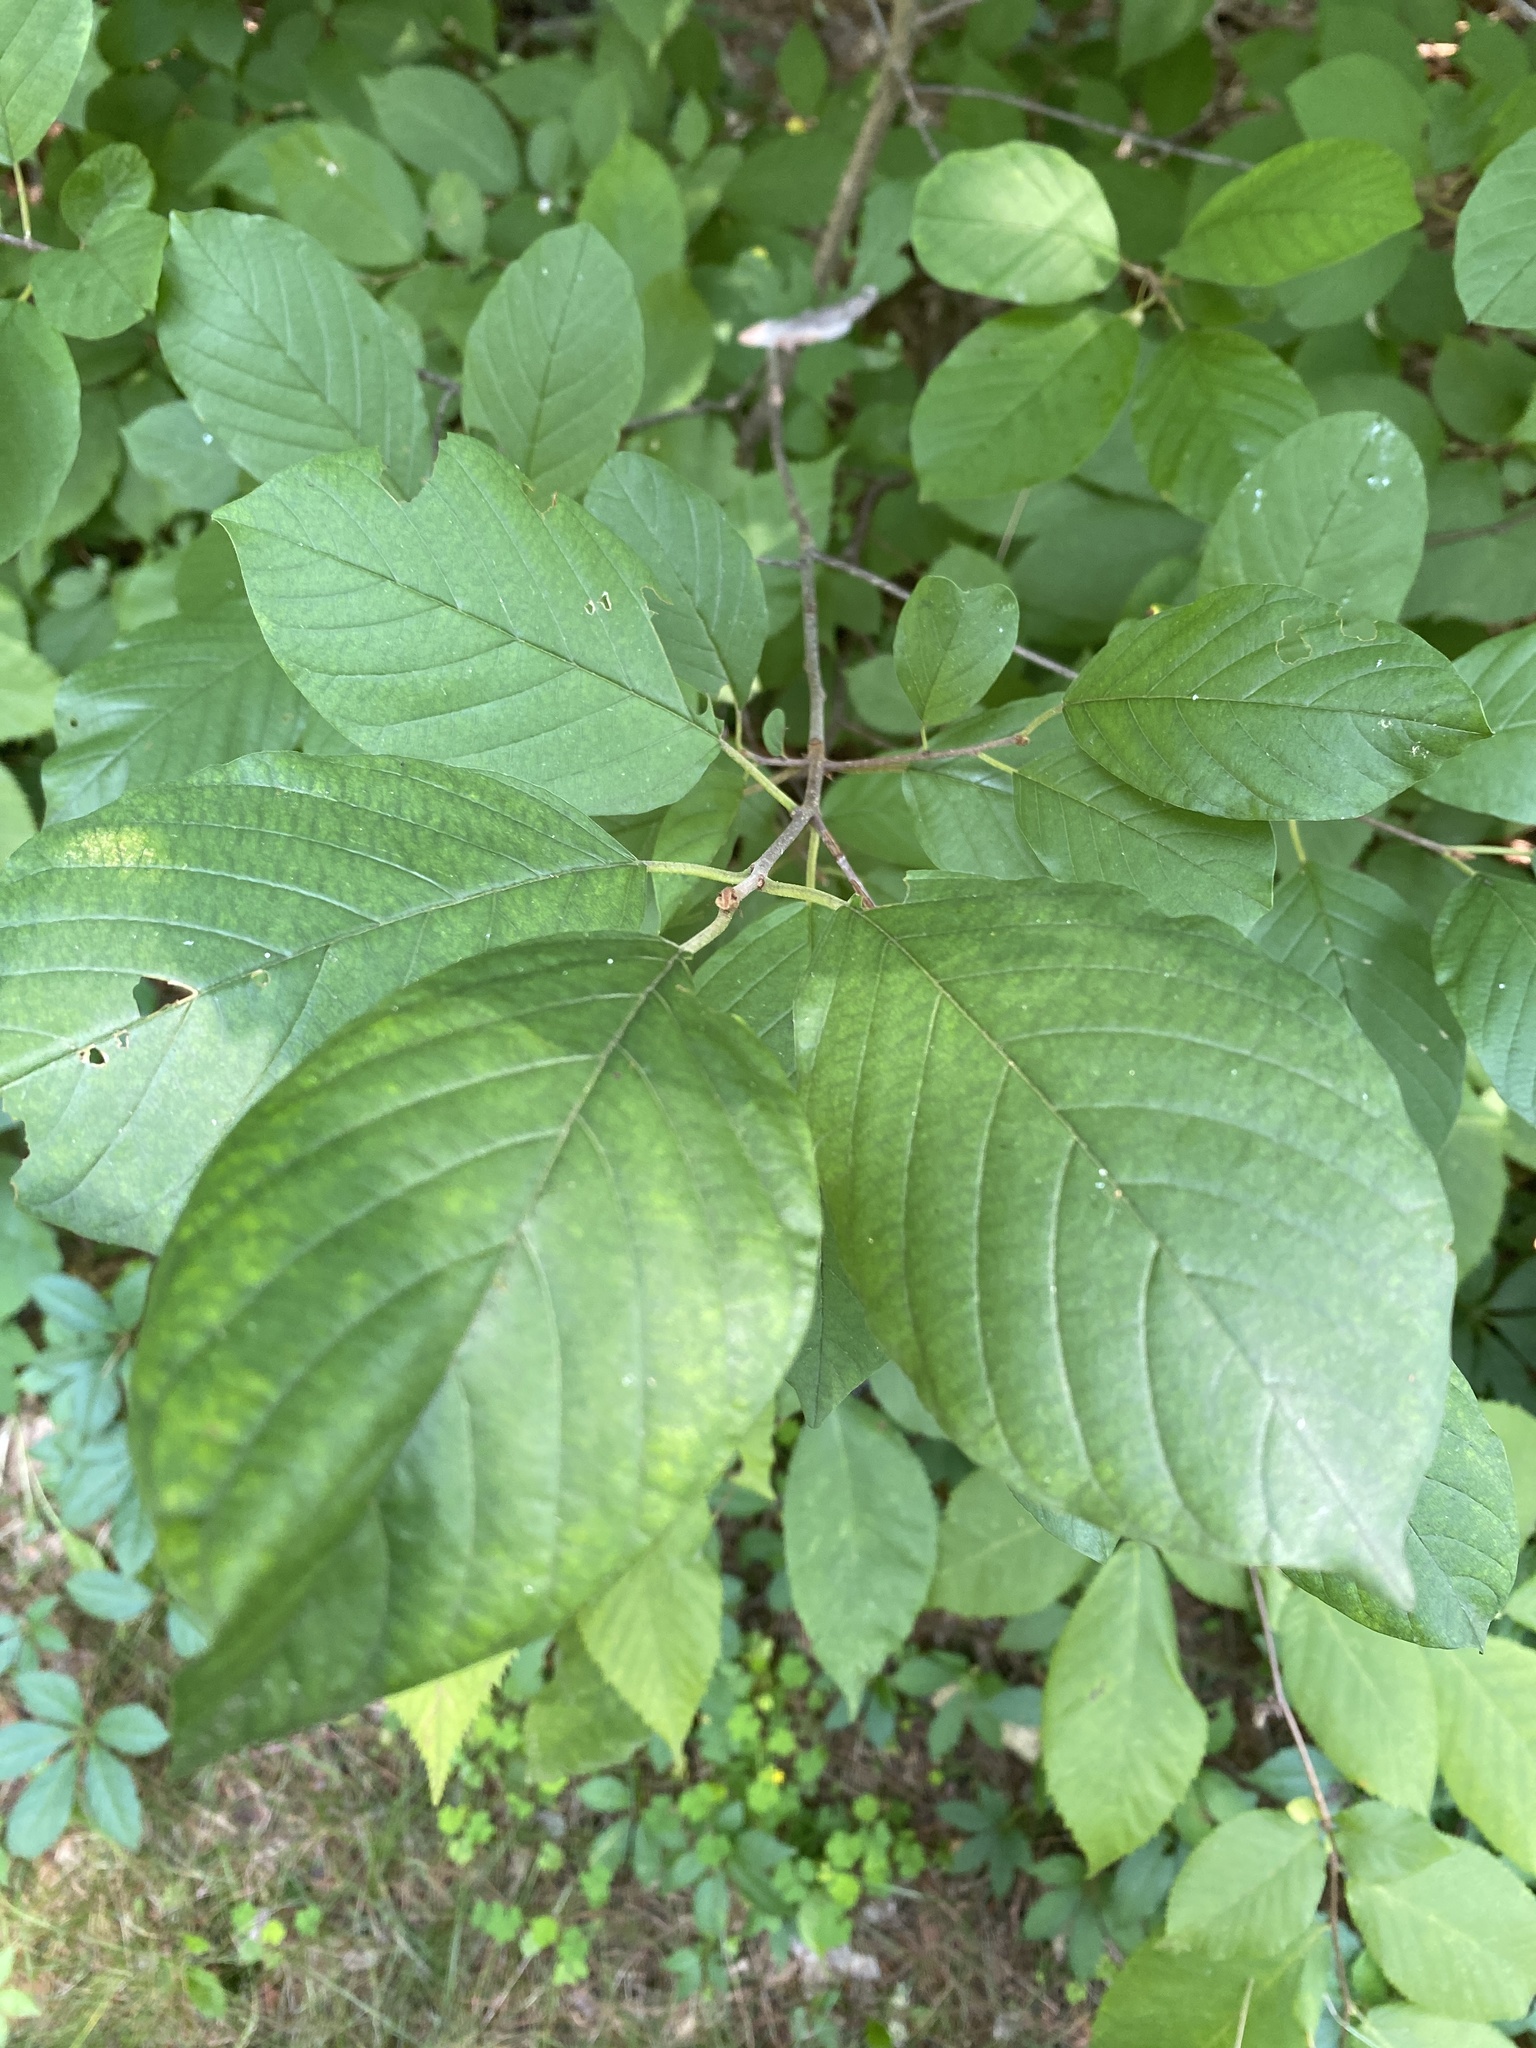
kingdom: Plantae
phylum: Tracheophyta
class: Magnoliopsida
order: Rosales
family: Rhamnaceae
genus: Frangula
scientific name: Frangula alnus
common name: Alder buckthorn
